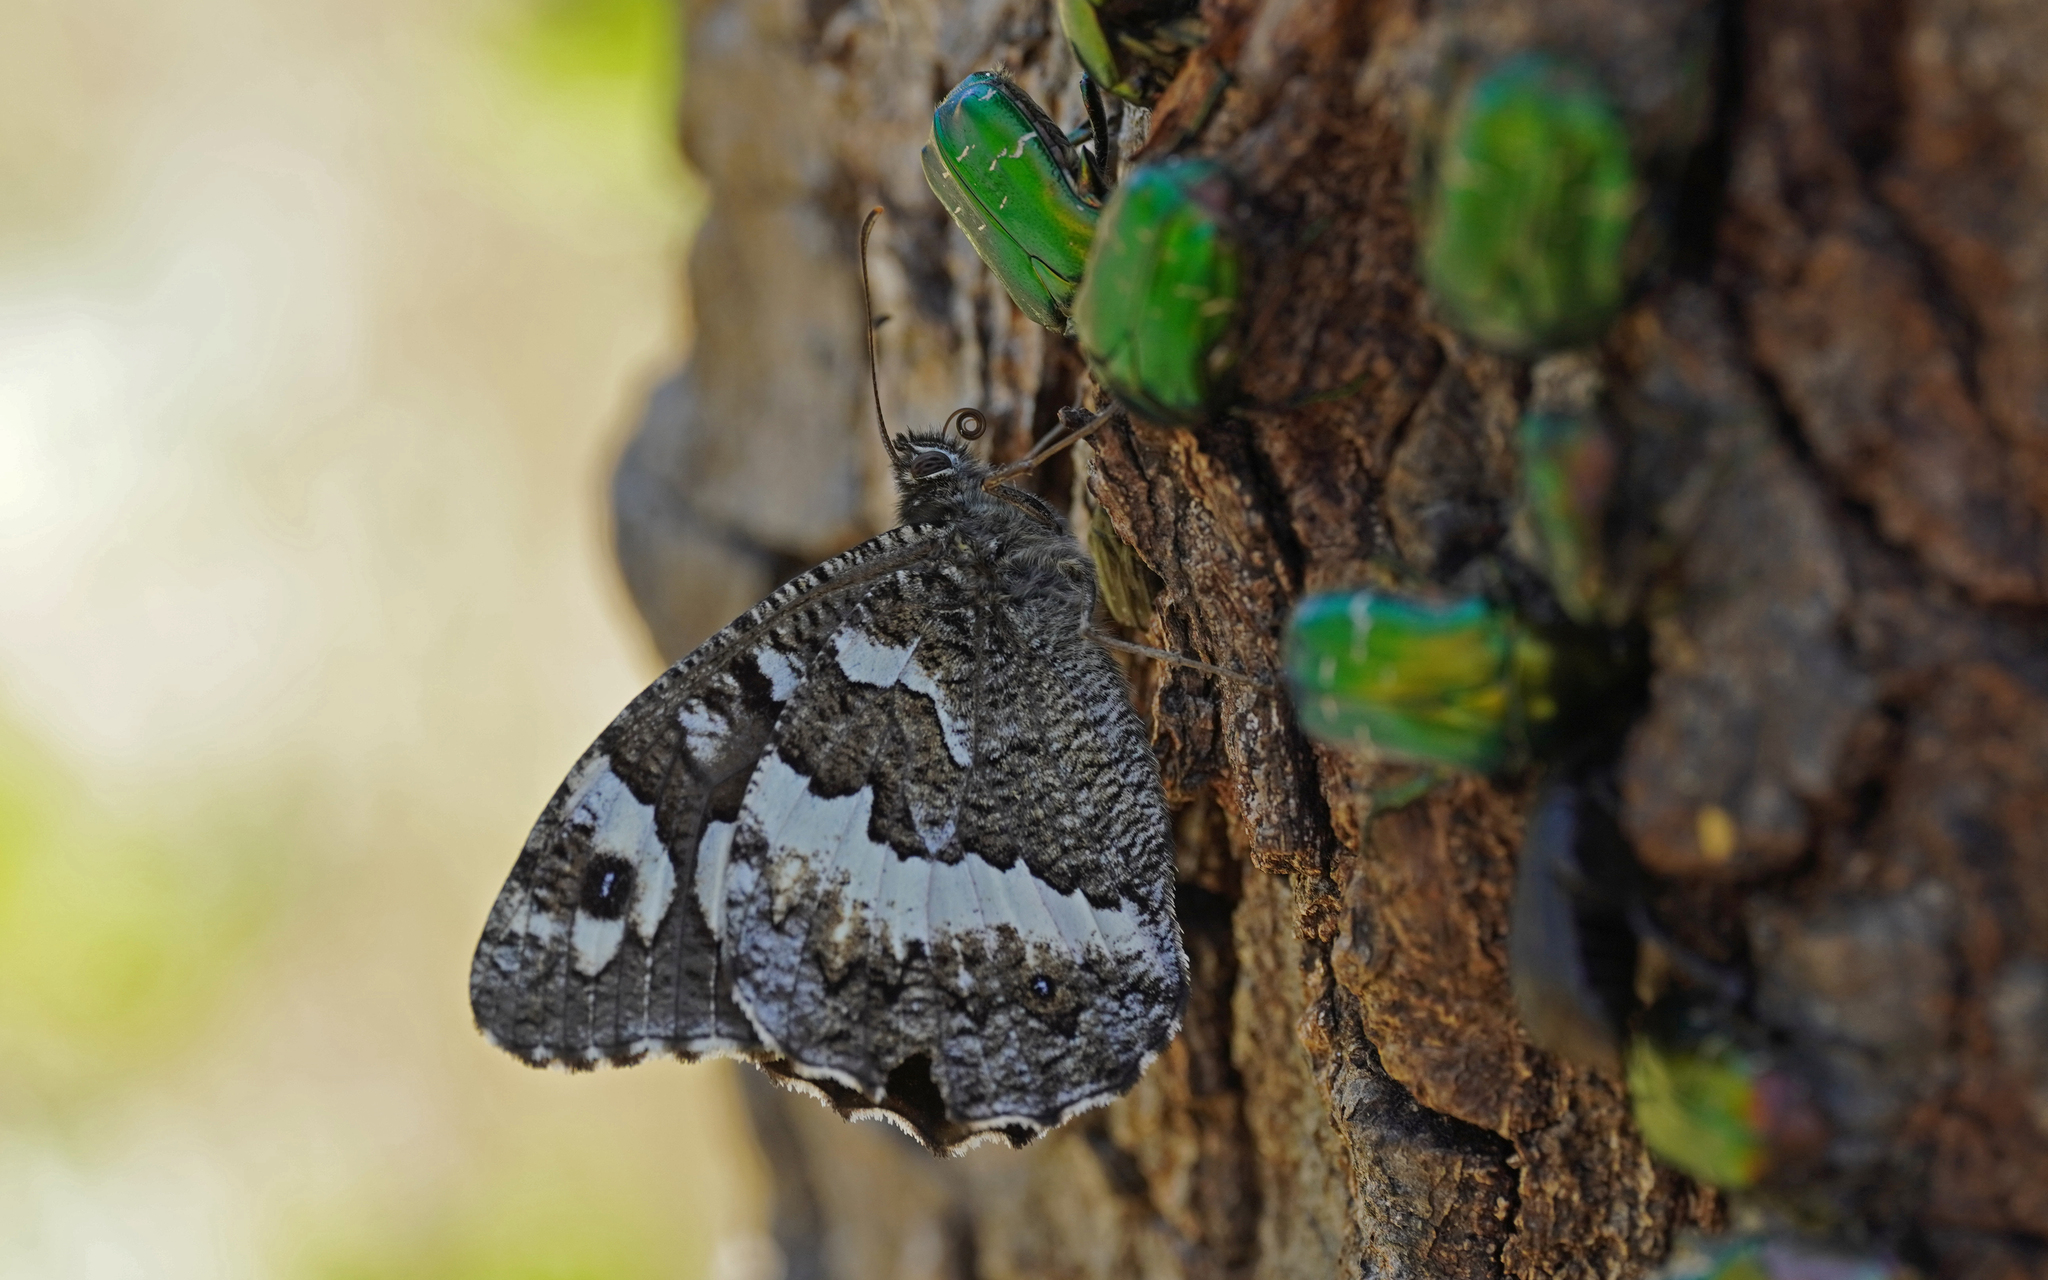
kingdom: Animalia
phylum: Arthropoda
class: Insecta
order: Lepidoptera
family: Lycaenidae
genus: Loweia
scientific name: Loweia tityrus
